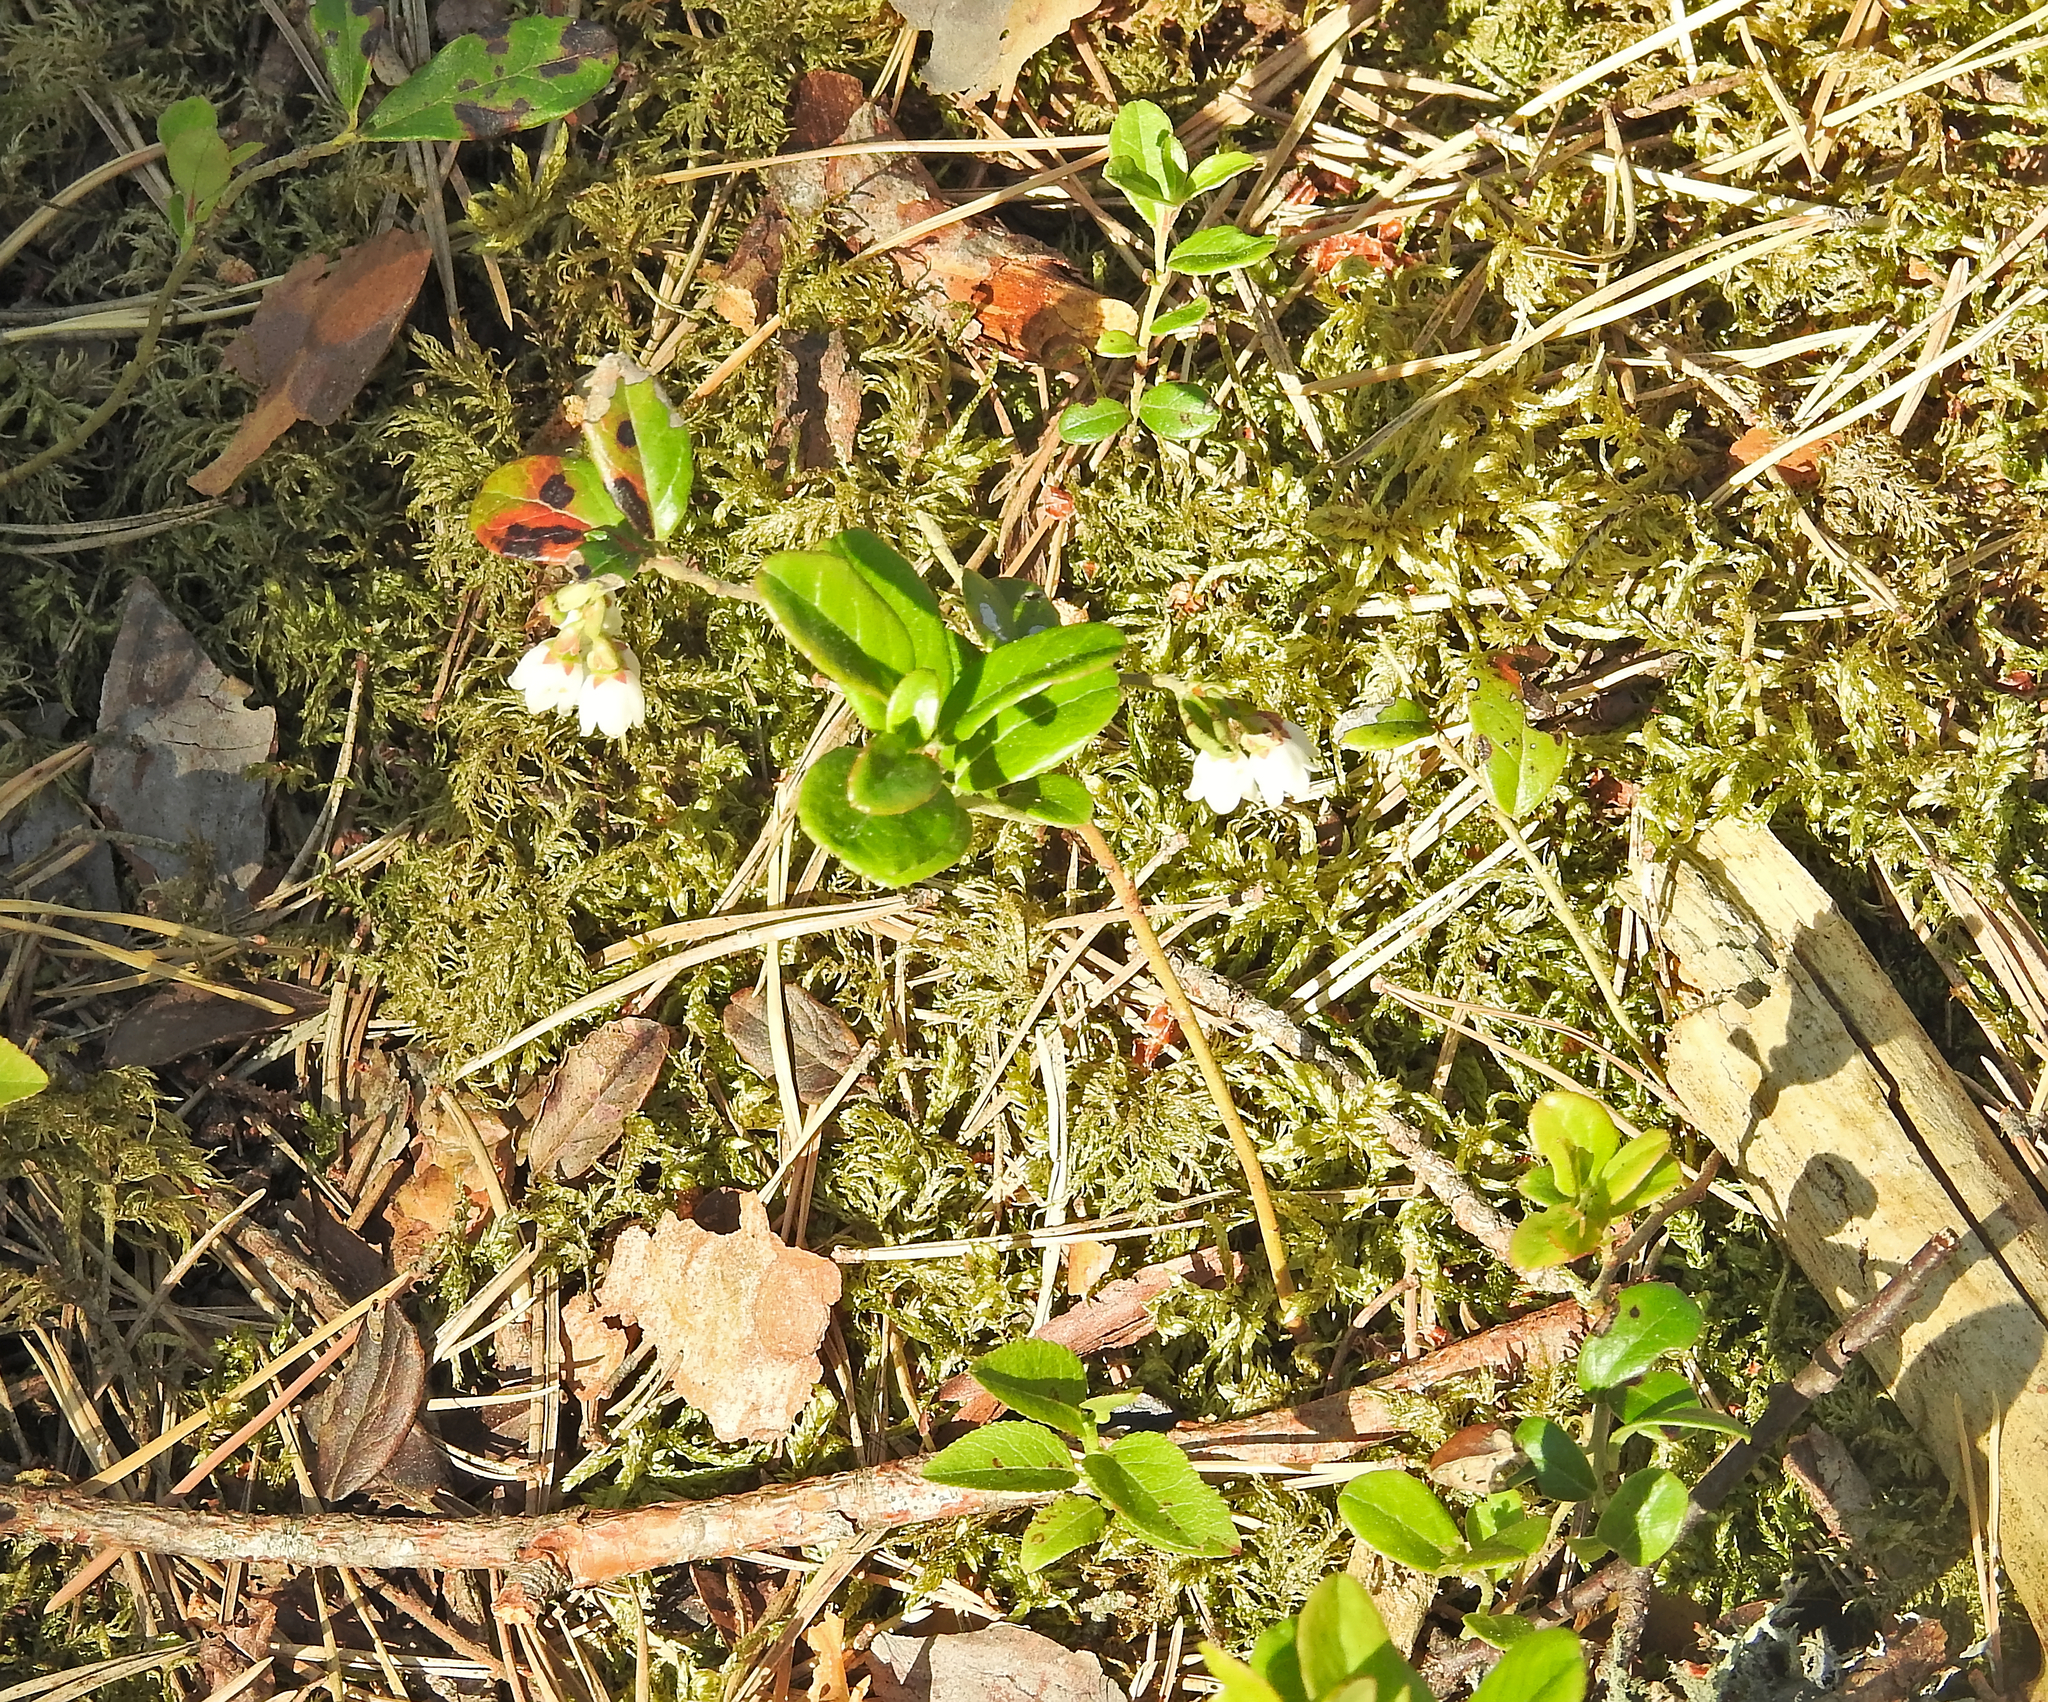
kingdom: Plantae
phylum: Tracheophyta
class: Magnoliopsida
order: Ericales
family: Ericaceae
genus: Vaccinium
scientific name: Vaccinium vitis-idaea
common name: Cowberry
